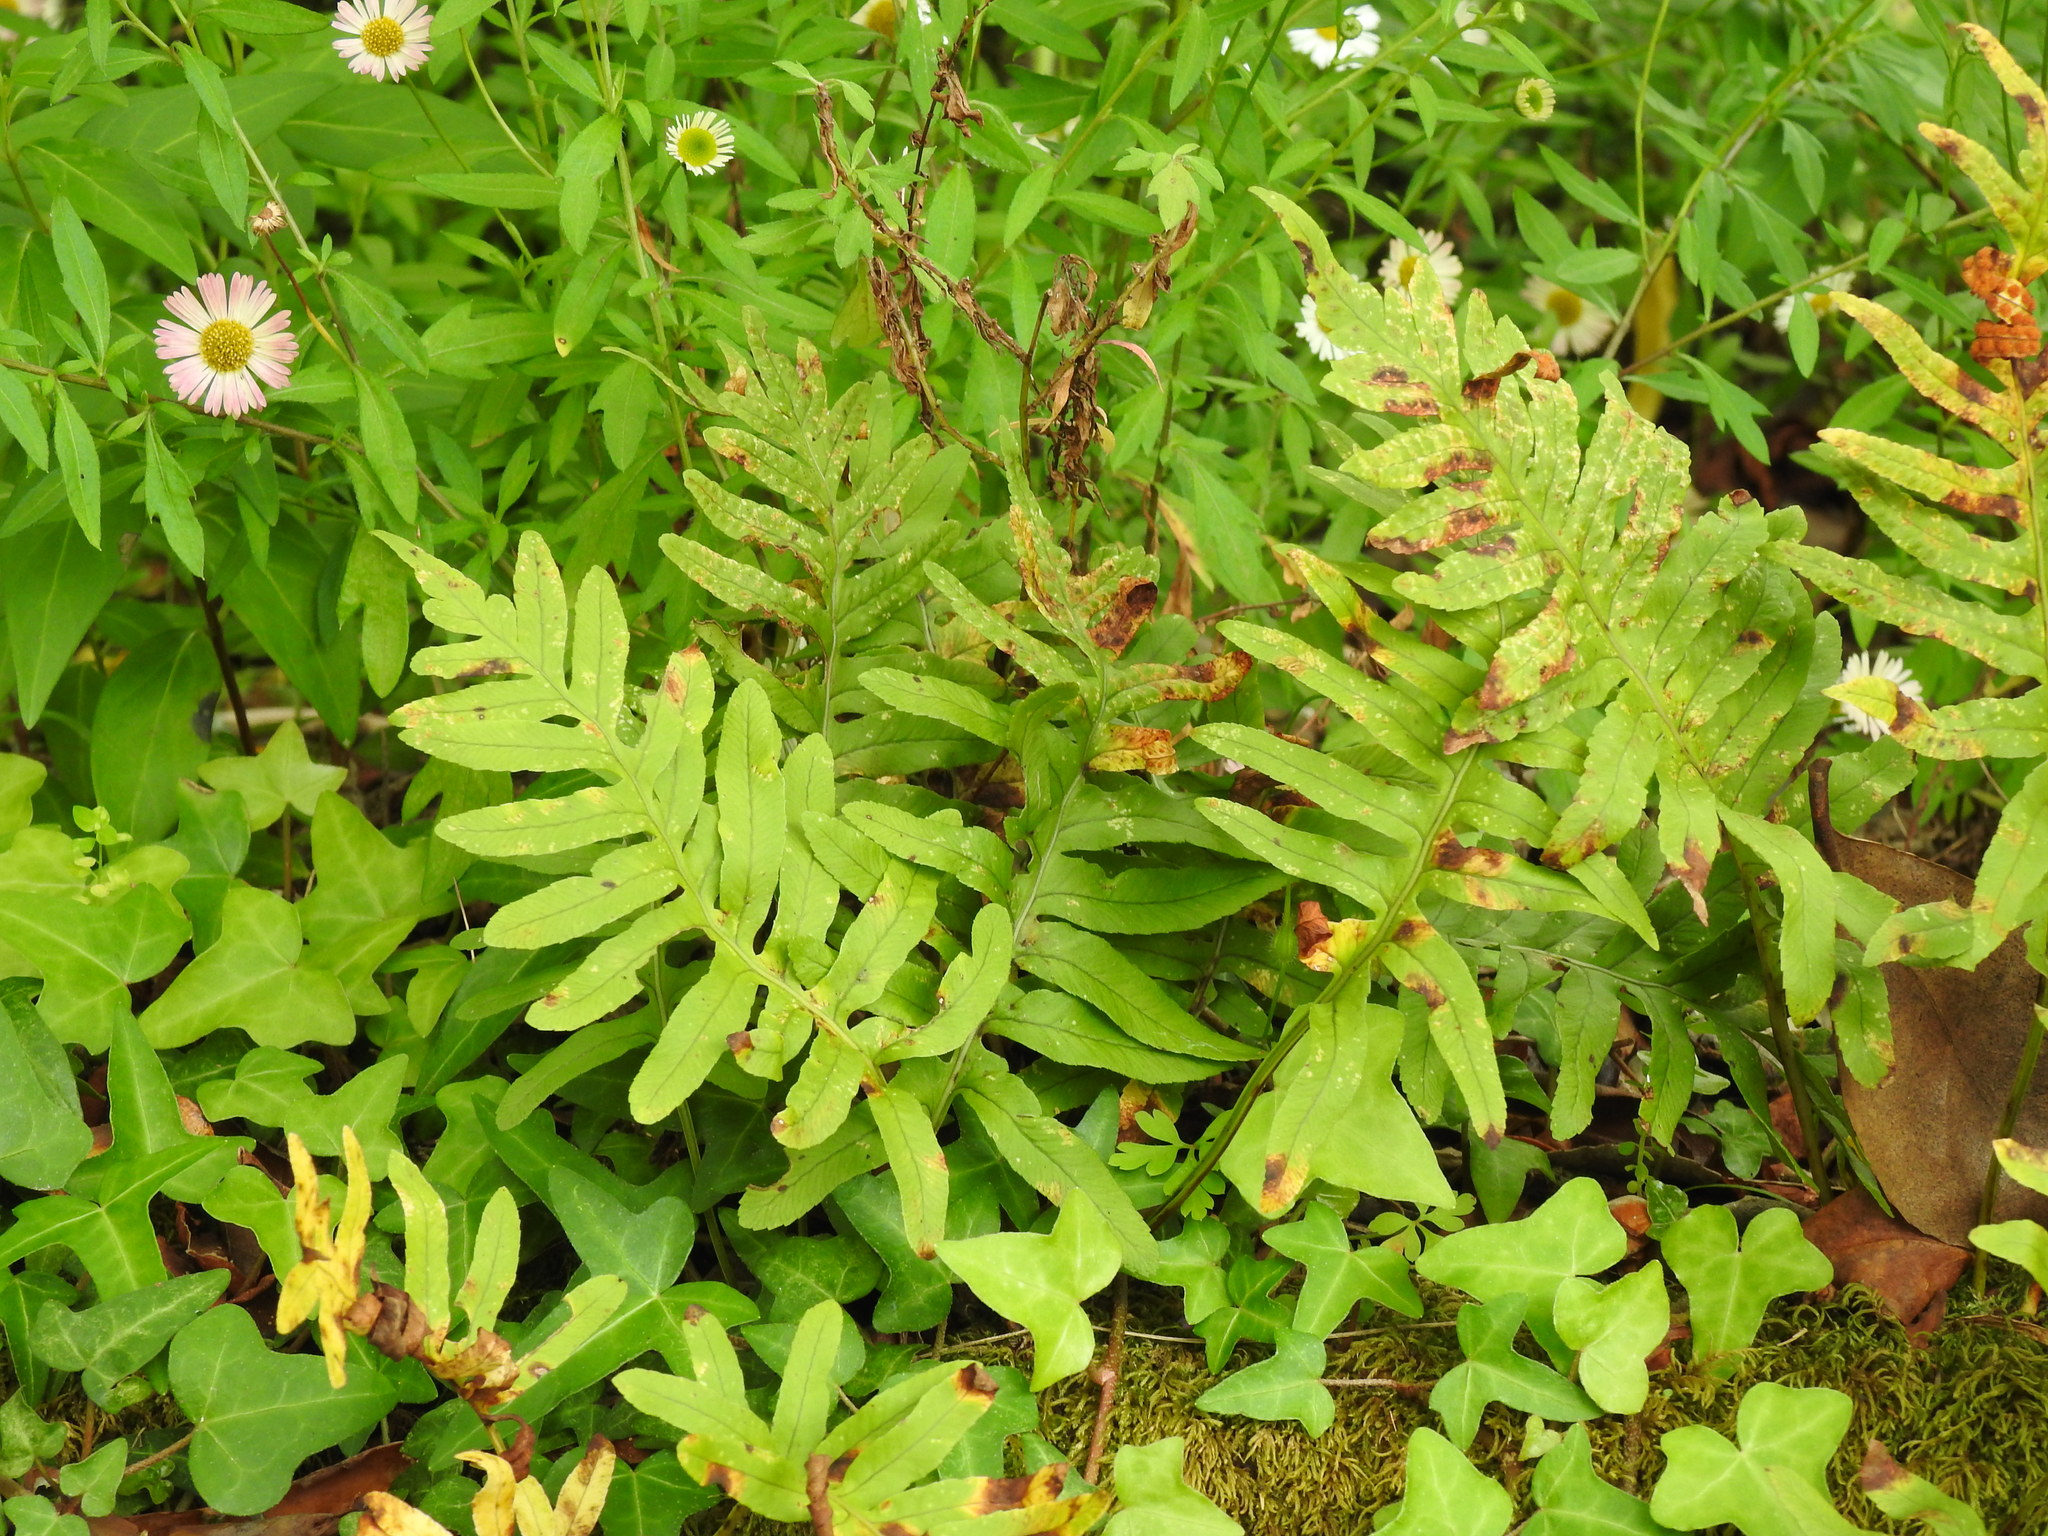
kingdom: Plantae
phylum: Tracheophyta
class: Polypodiopsida
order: Polypodiales
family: Polypodiaceae
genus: Polypodium
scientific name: Polypodium cambricum
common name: Southern polypody
